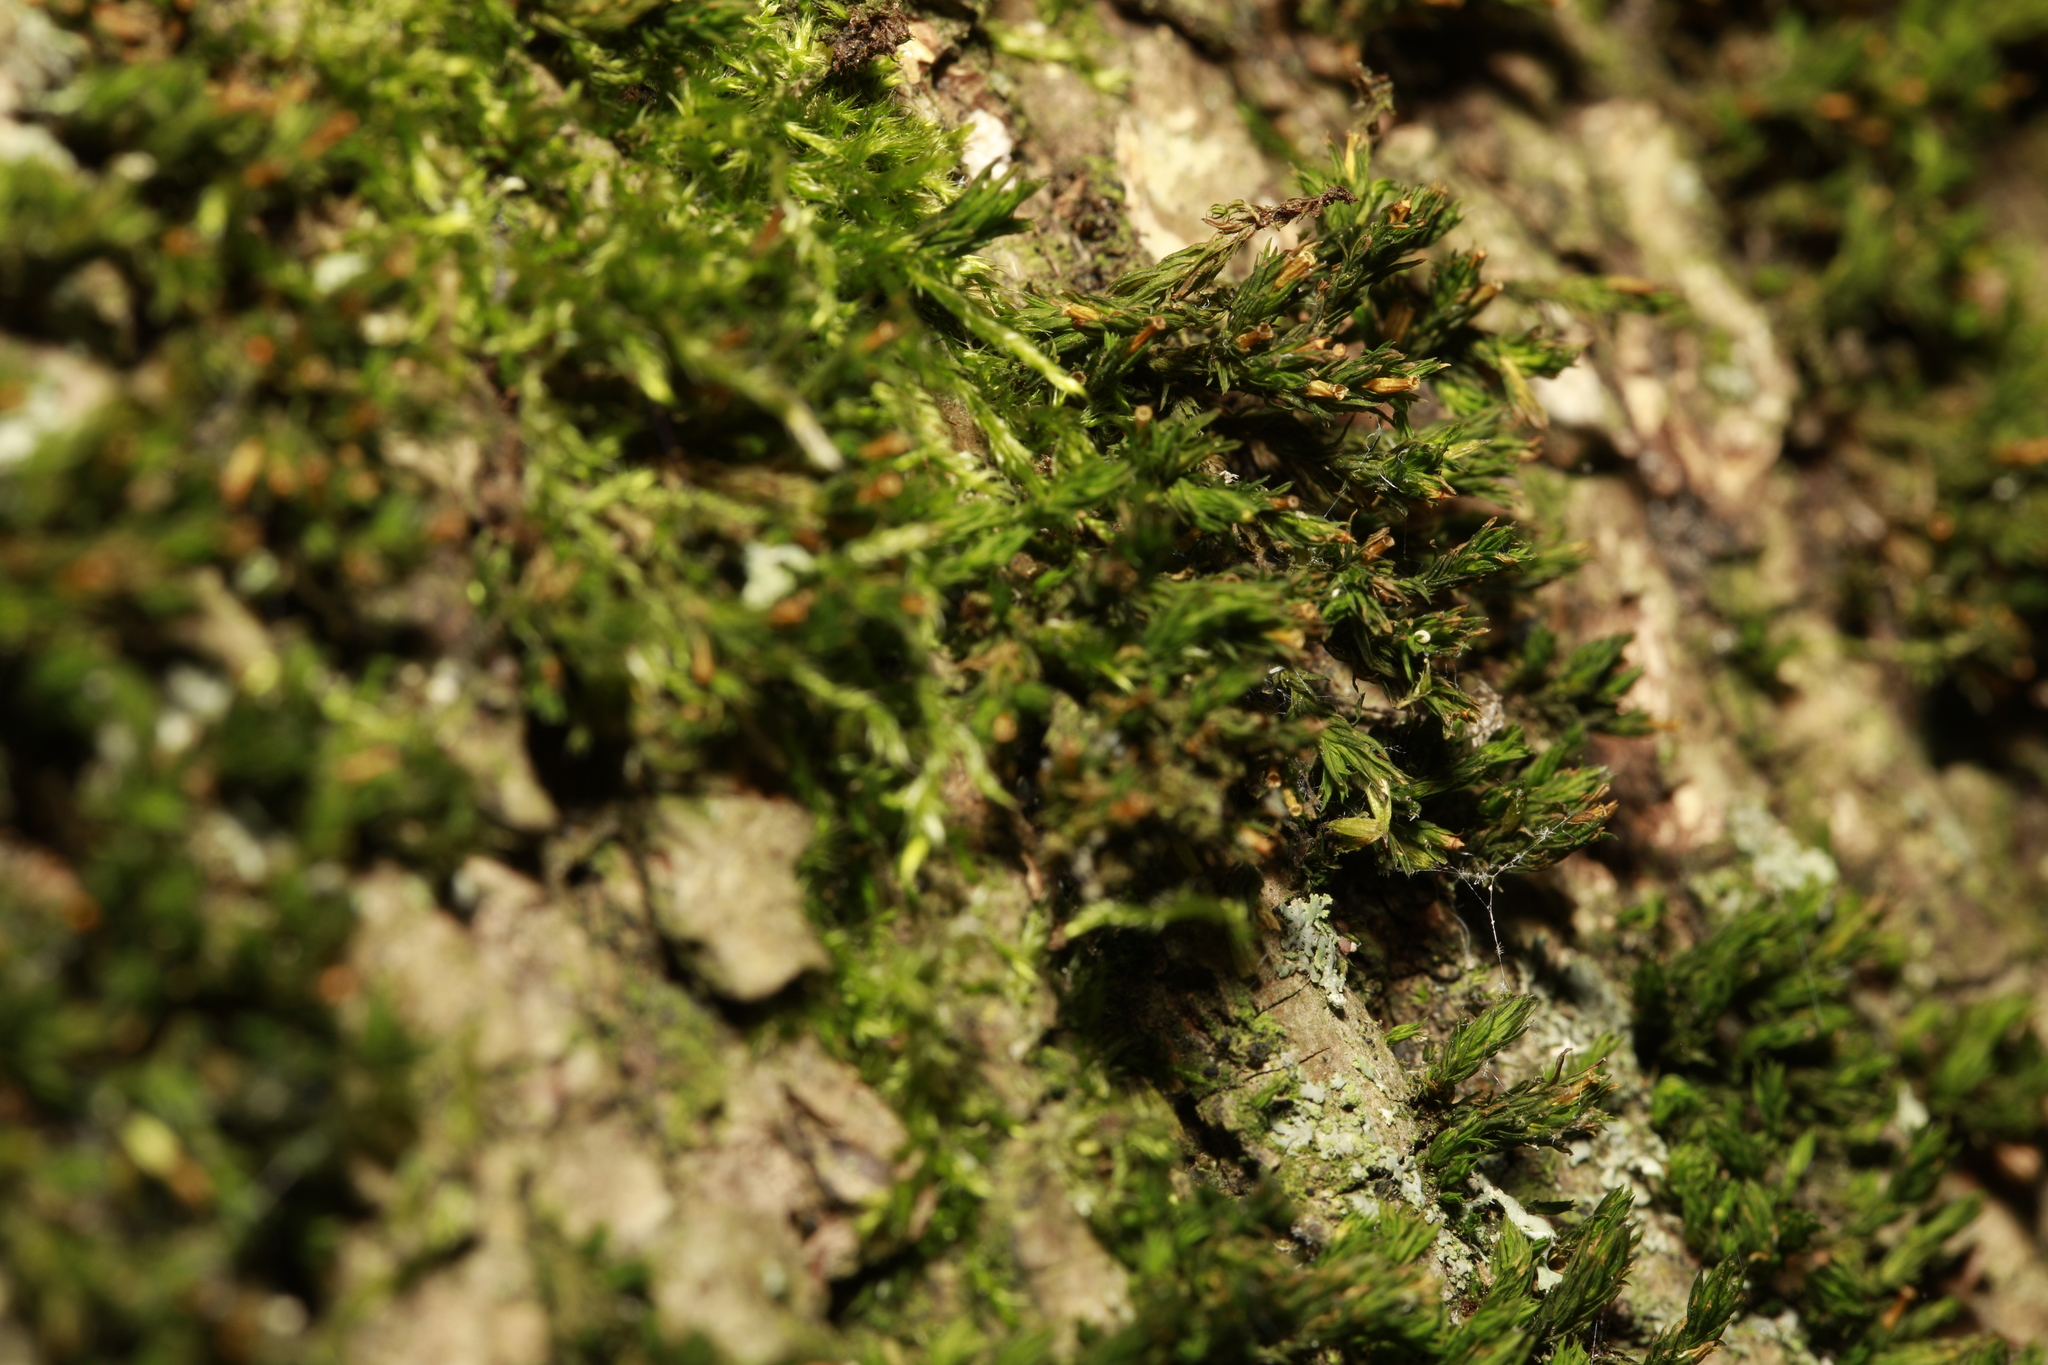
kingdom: Plantae
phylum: Bryophyta
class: Bryopsida
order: Orthotrichales
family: Orthotrichaceae
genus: Lewinskya
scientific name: Lewinskya affinis
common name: Wood bristle-moss
